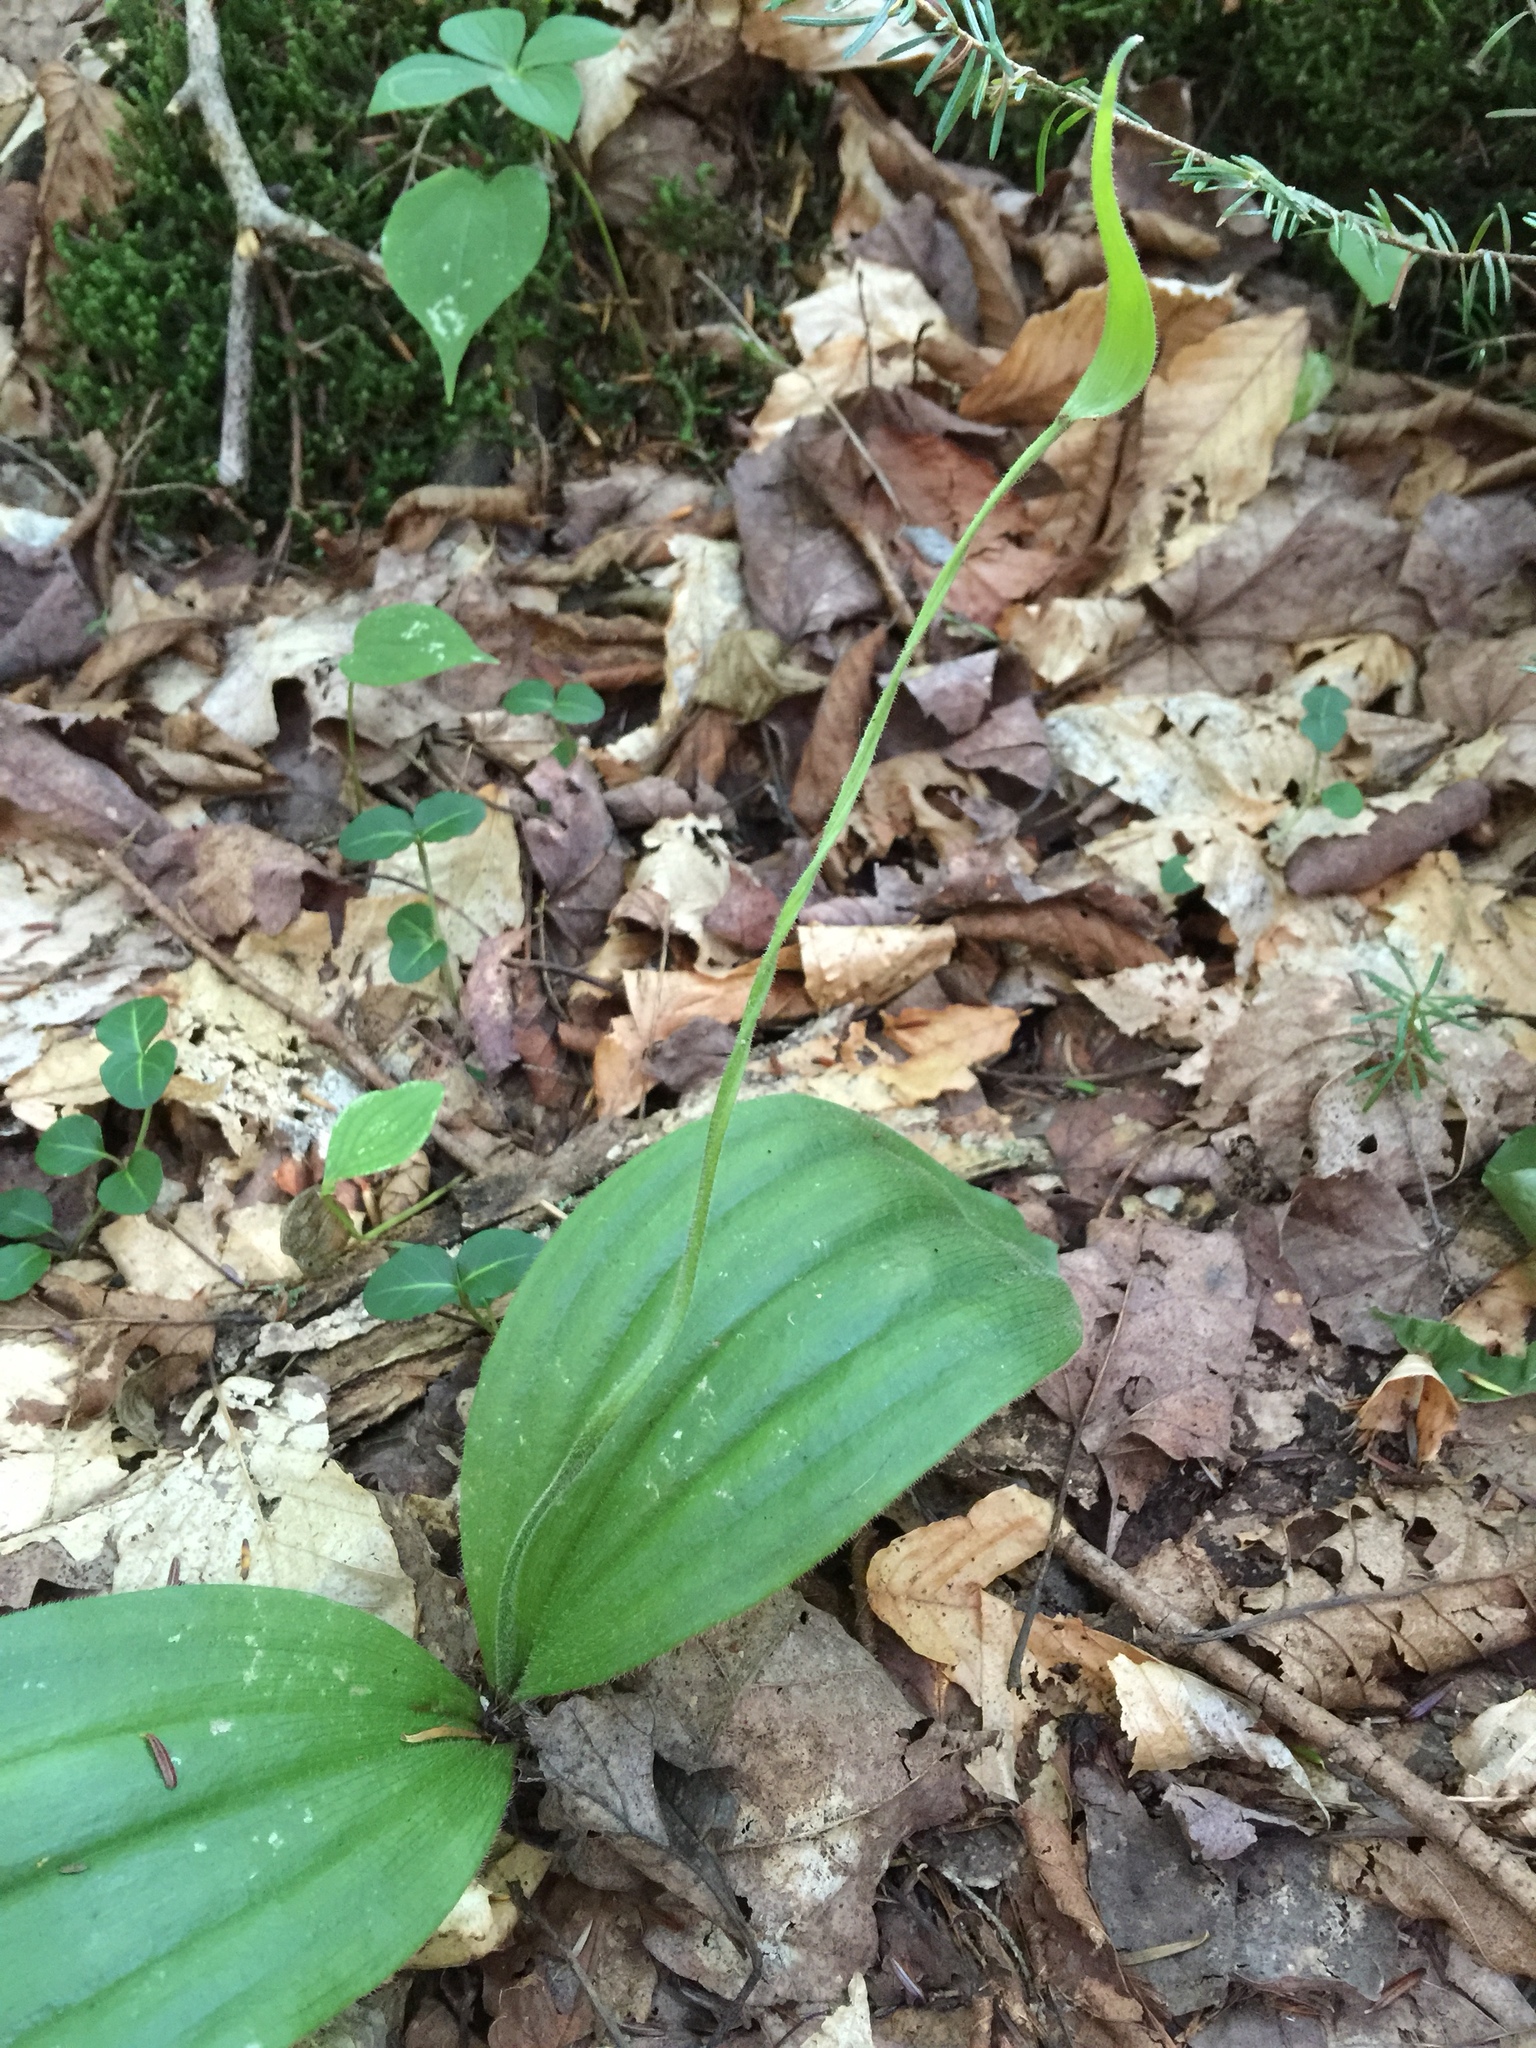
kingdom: Plantae
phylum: Tracheophyta
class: Liliopsida
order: Asparagales
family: Orchidaceae
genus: Cypripedium
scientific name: Cypripedium acaule
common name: Pink lady's-slipper
